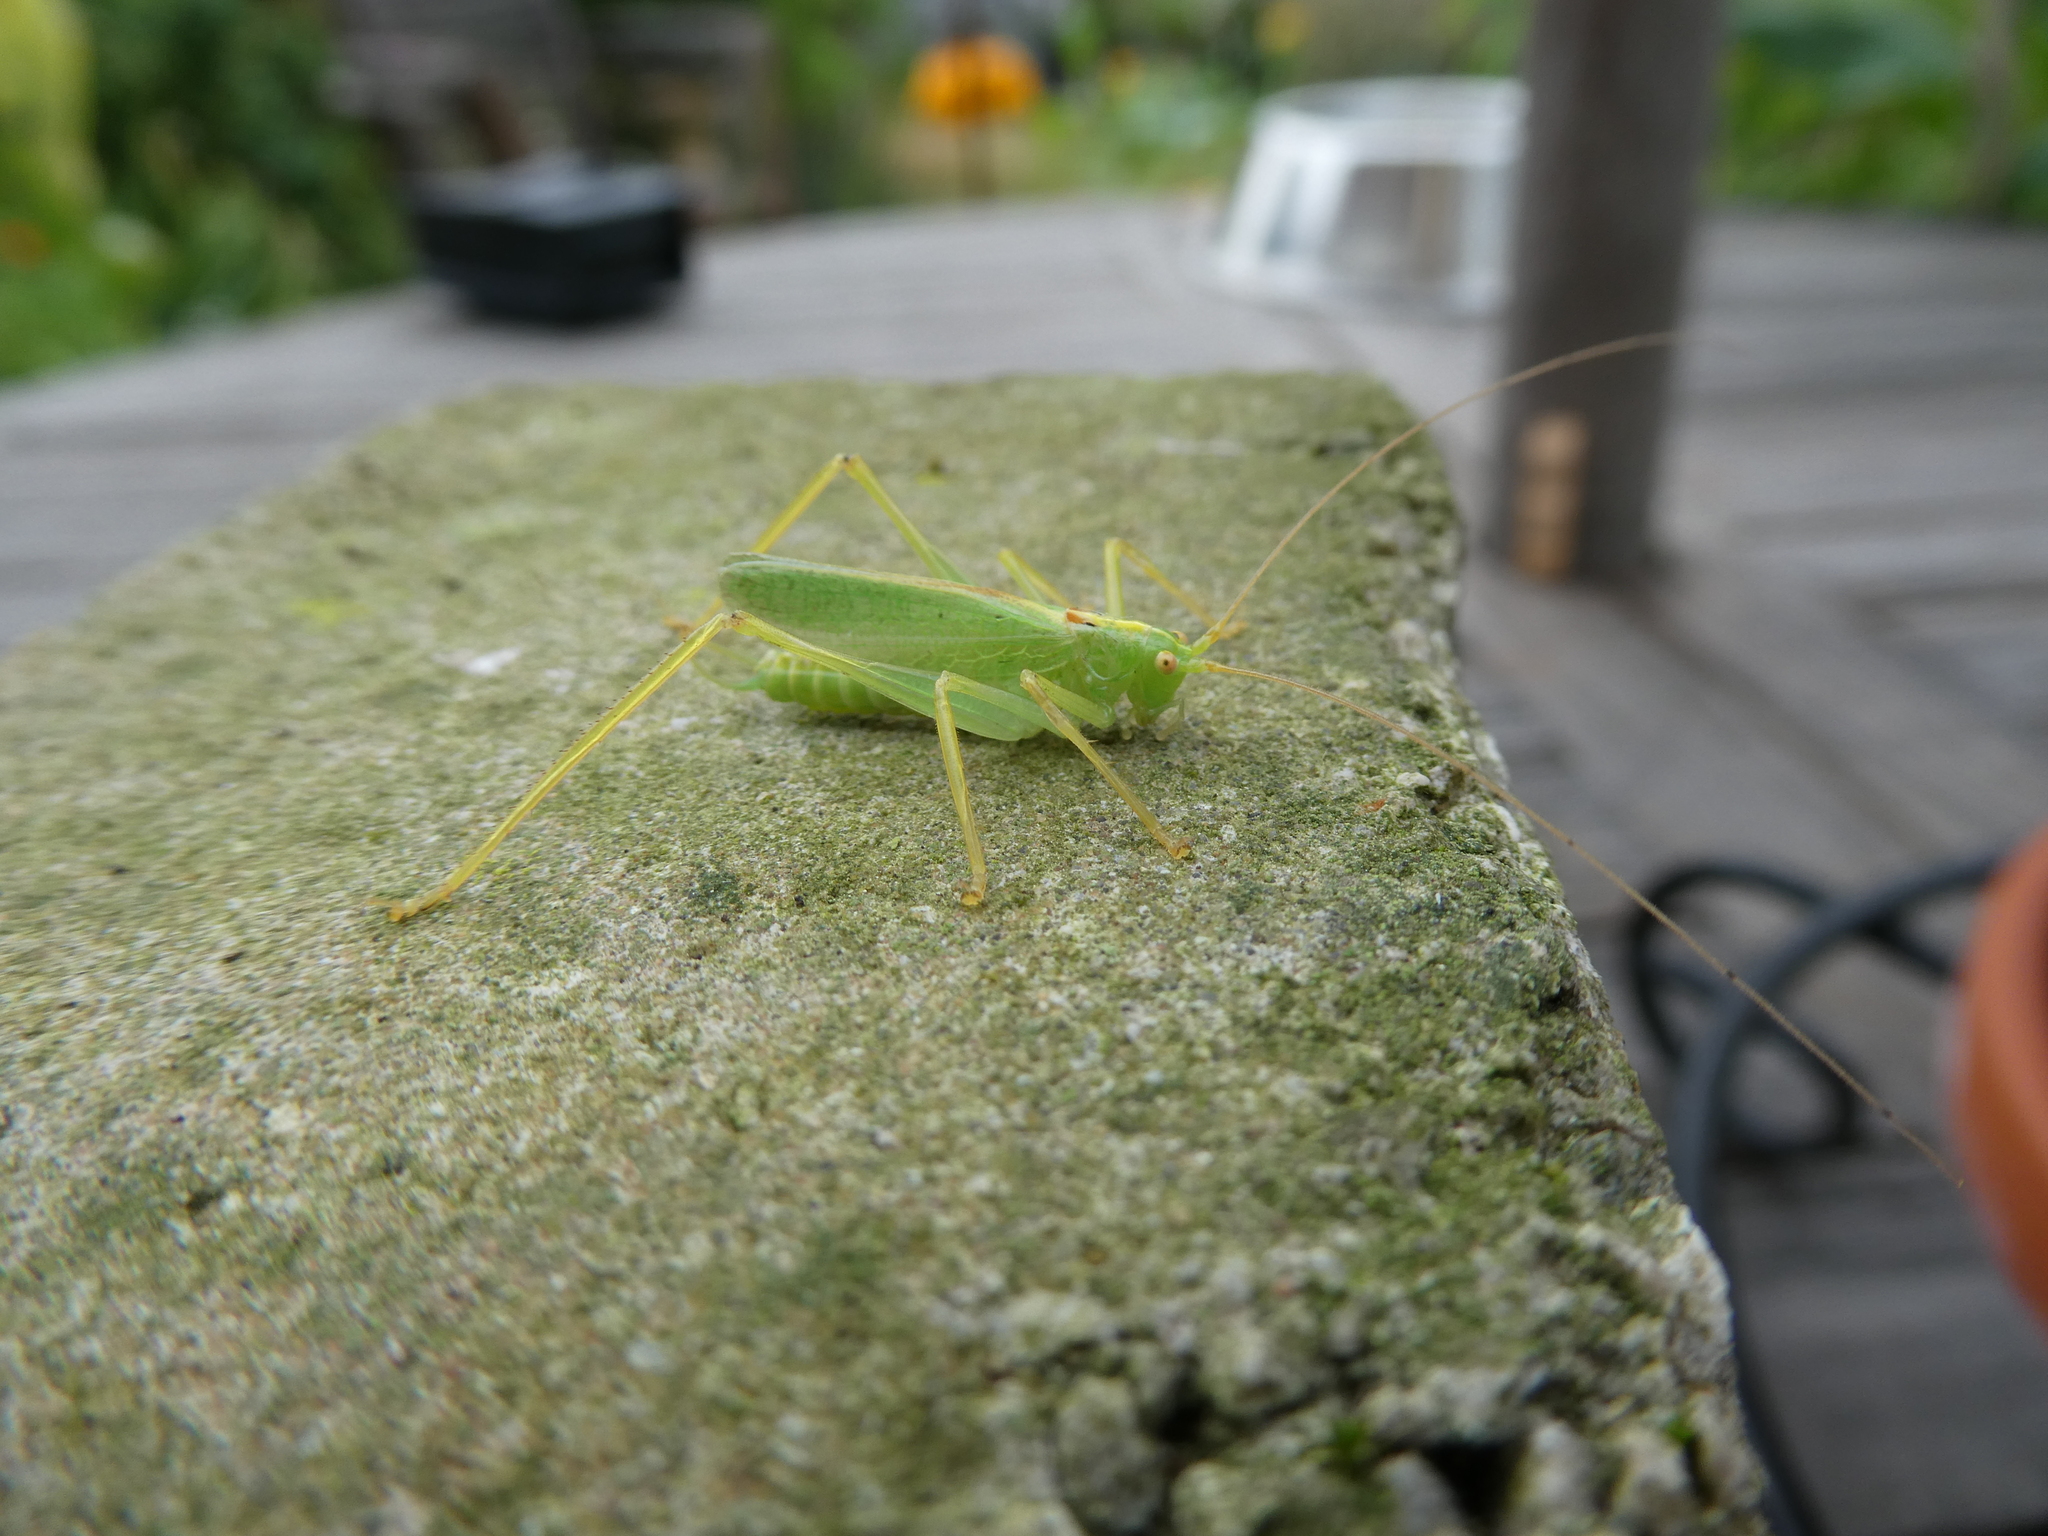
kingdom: Animalia
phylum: Arthropoda
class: Insecta
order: Orthoptera
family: Tettigoniidae
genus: Meconema
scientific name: Meconema thalassinum
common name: Oak bush-cricket
